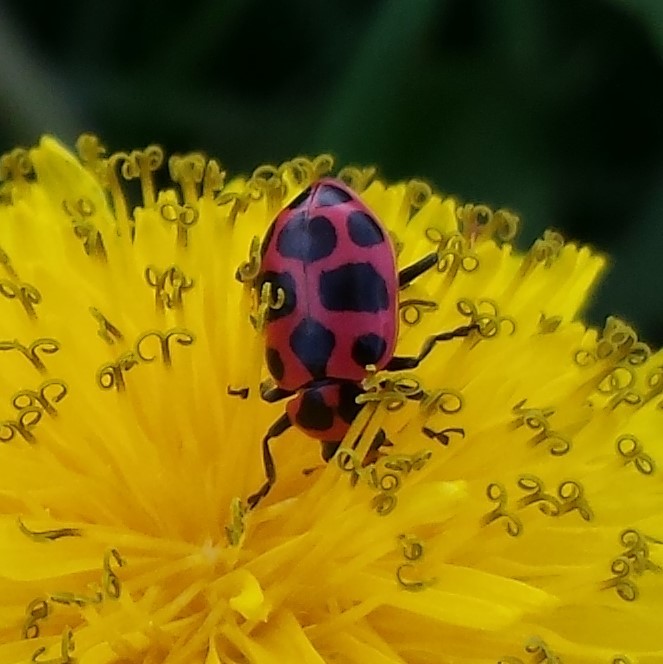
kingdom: Animalia
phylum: Arthropoda
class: Insecta
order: Coleoptera
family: Coccinellidae
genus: Coleomegilla
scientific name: Coleomegilla maculata
